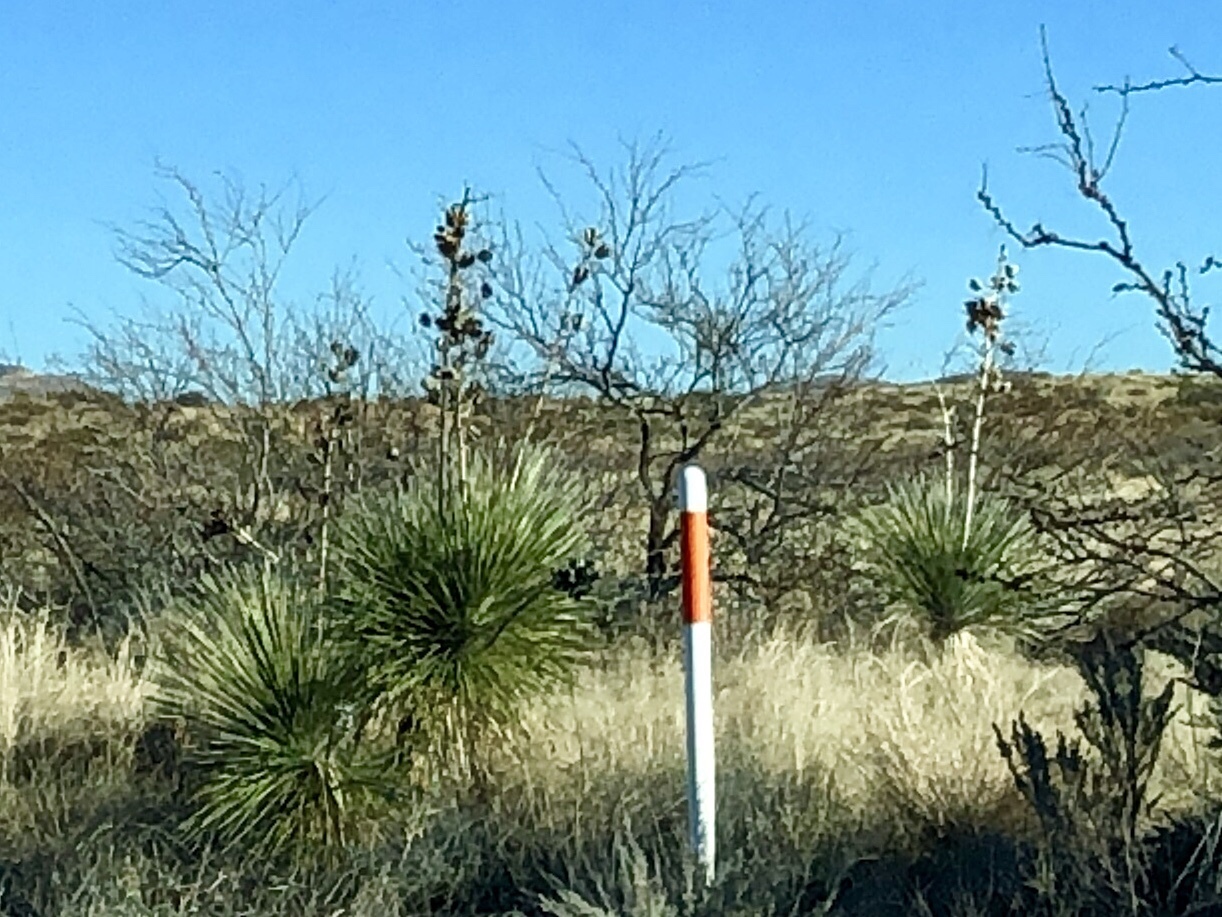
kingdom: Plantae
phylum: Tracheophyta
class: Liliopsida
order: Asparagales
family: Asparagaceae
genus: Yucca
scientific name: Yucca elata
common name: Palmella
